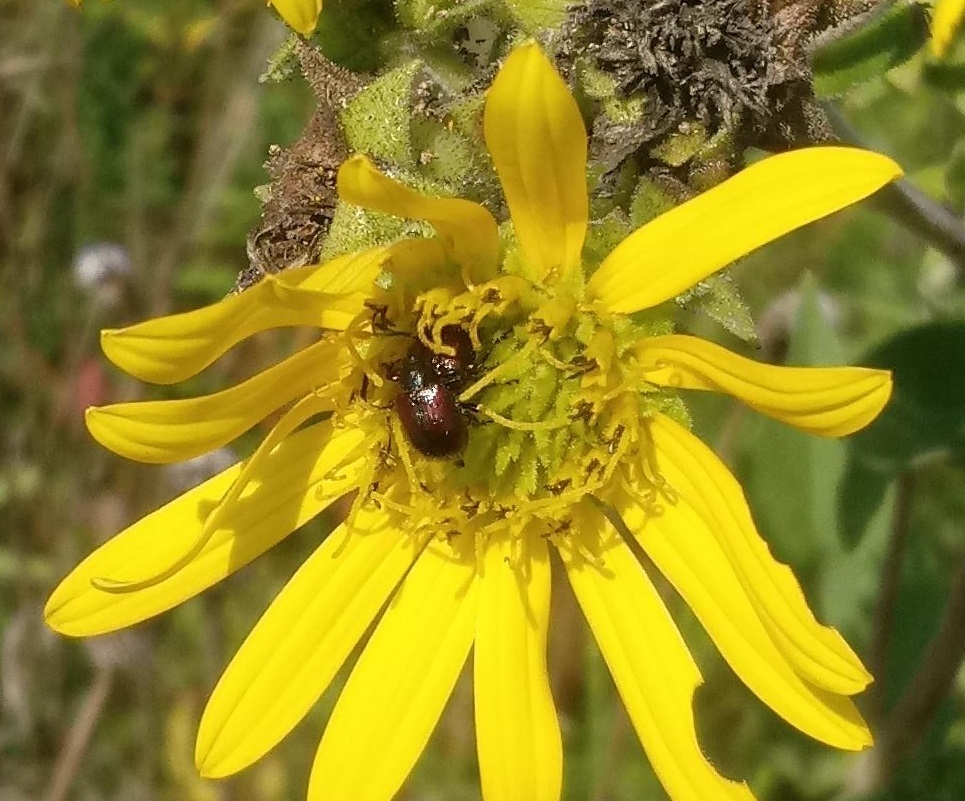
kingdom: Animalia
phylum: Arthropoda
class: Insecta
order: Coleoptera
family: Attelabidae
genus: Haplorhynchites
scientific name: Haplorhynchites aeneus
